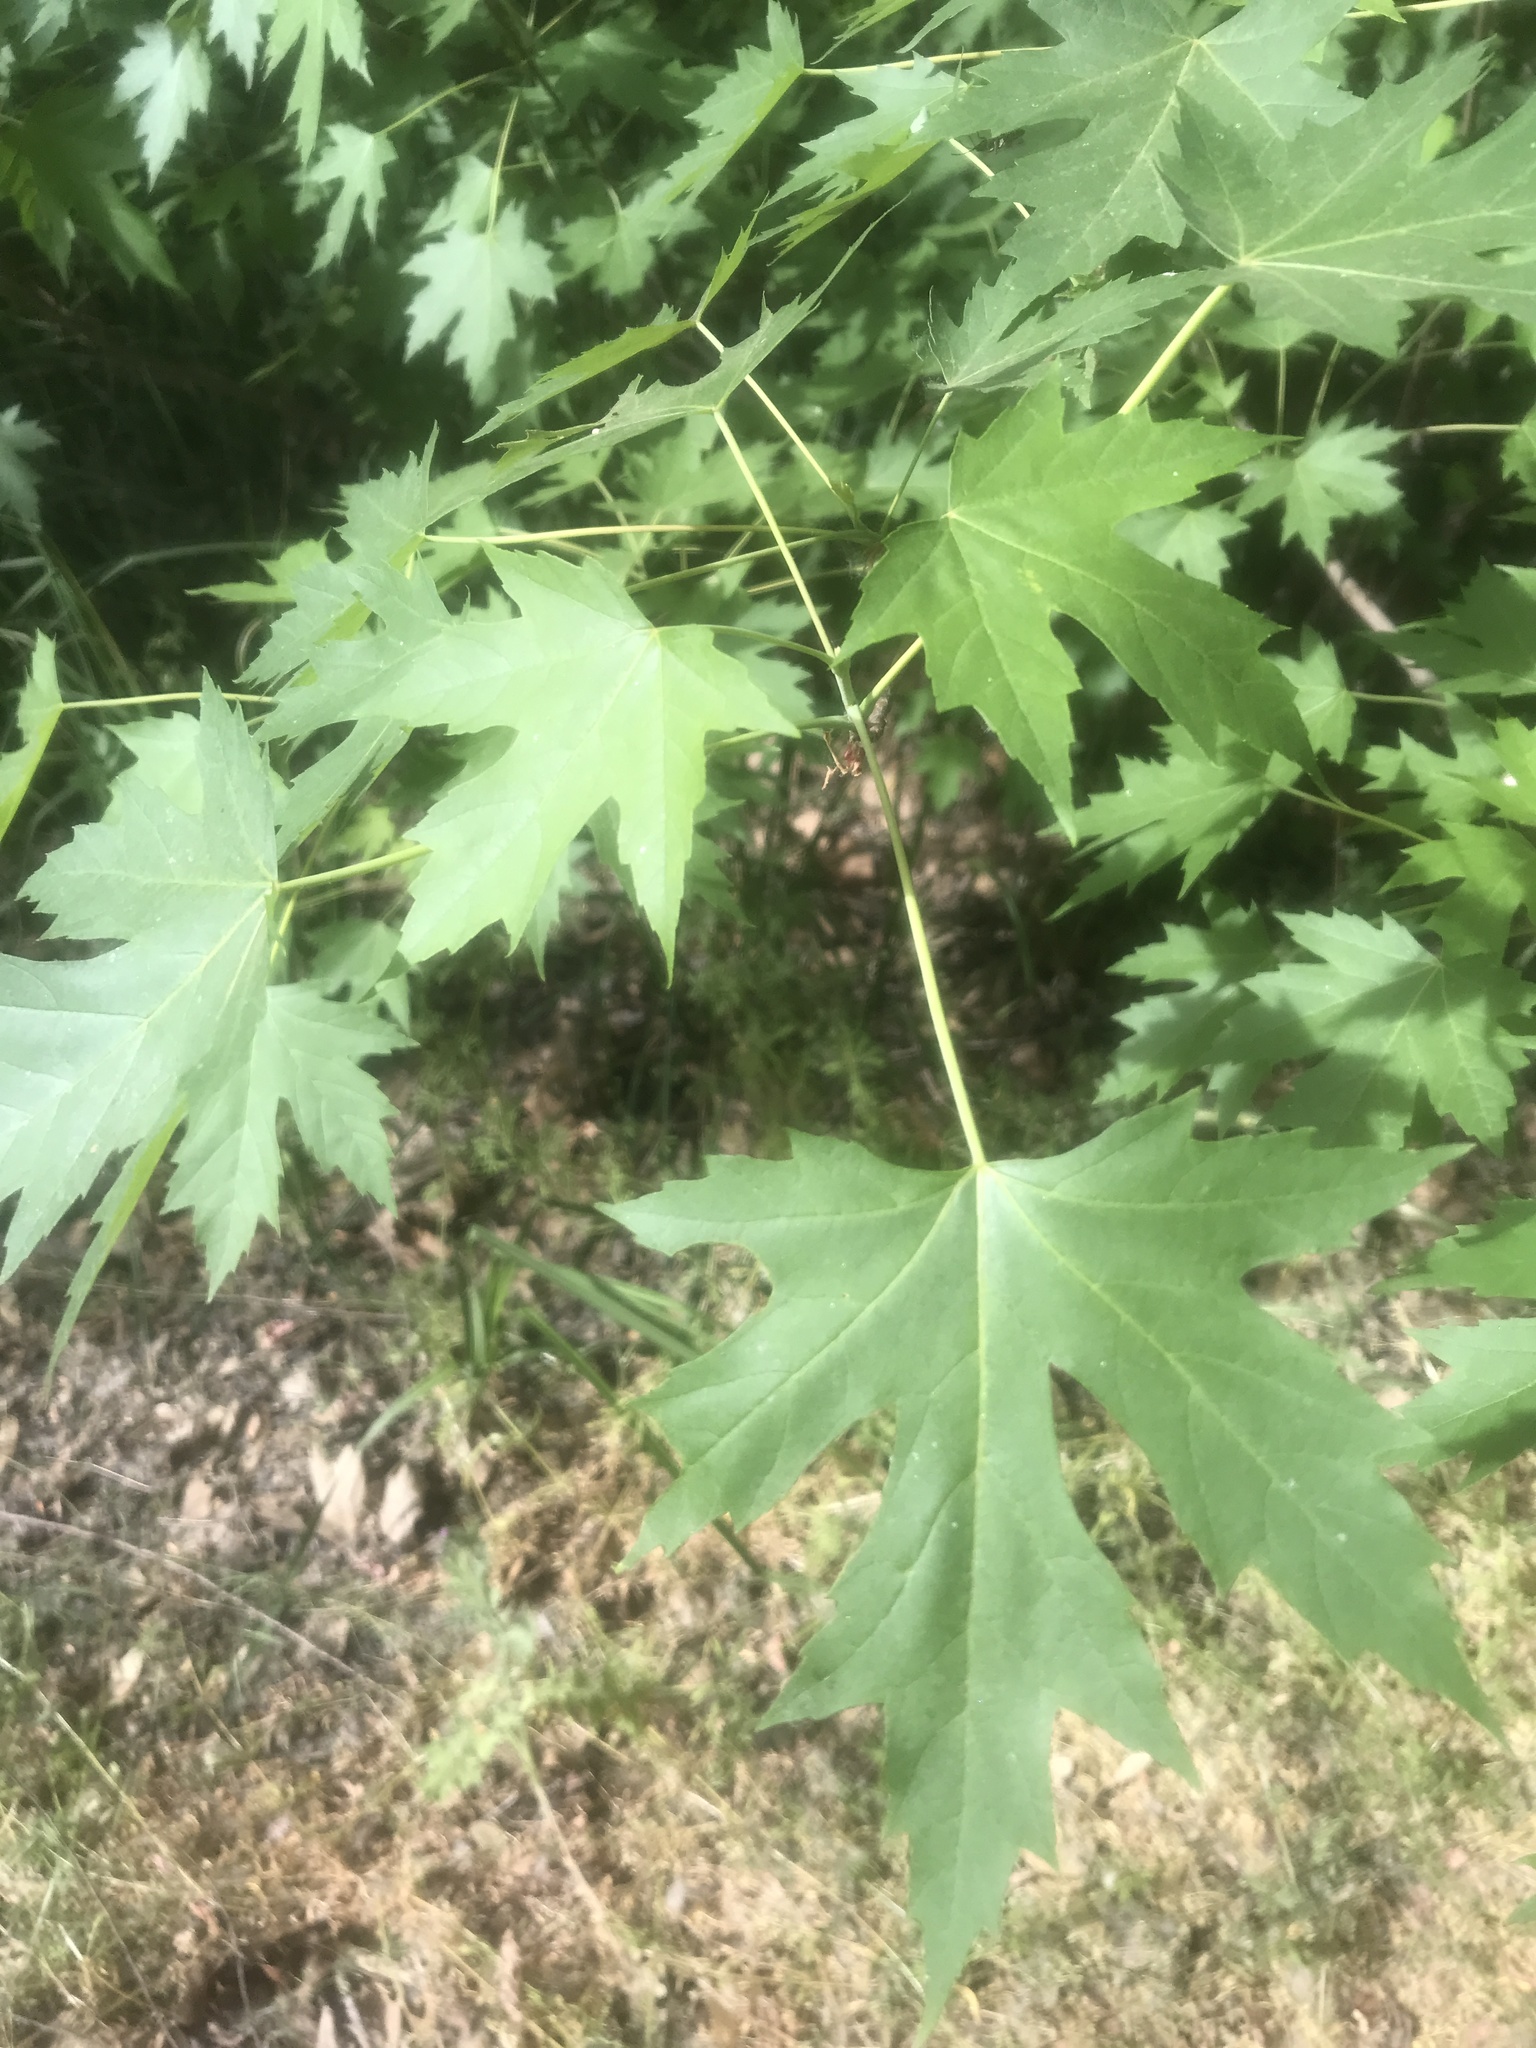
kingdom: Plantae
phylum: Tracheophyta
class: Magnoliopsida
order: Sapindales
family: Sapindaceae
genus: Acer
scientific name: Acer saccharinum
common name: Silver maple
